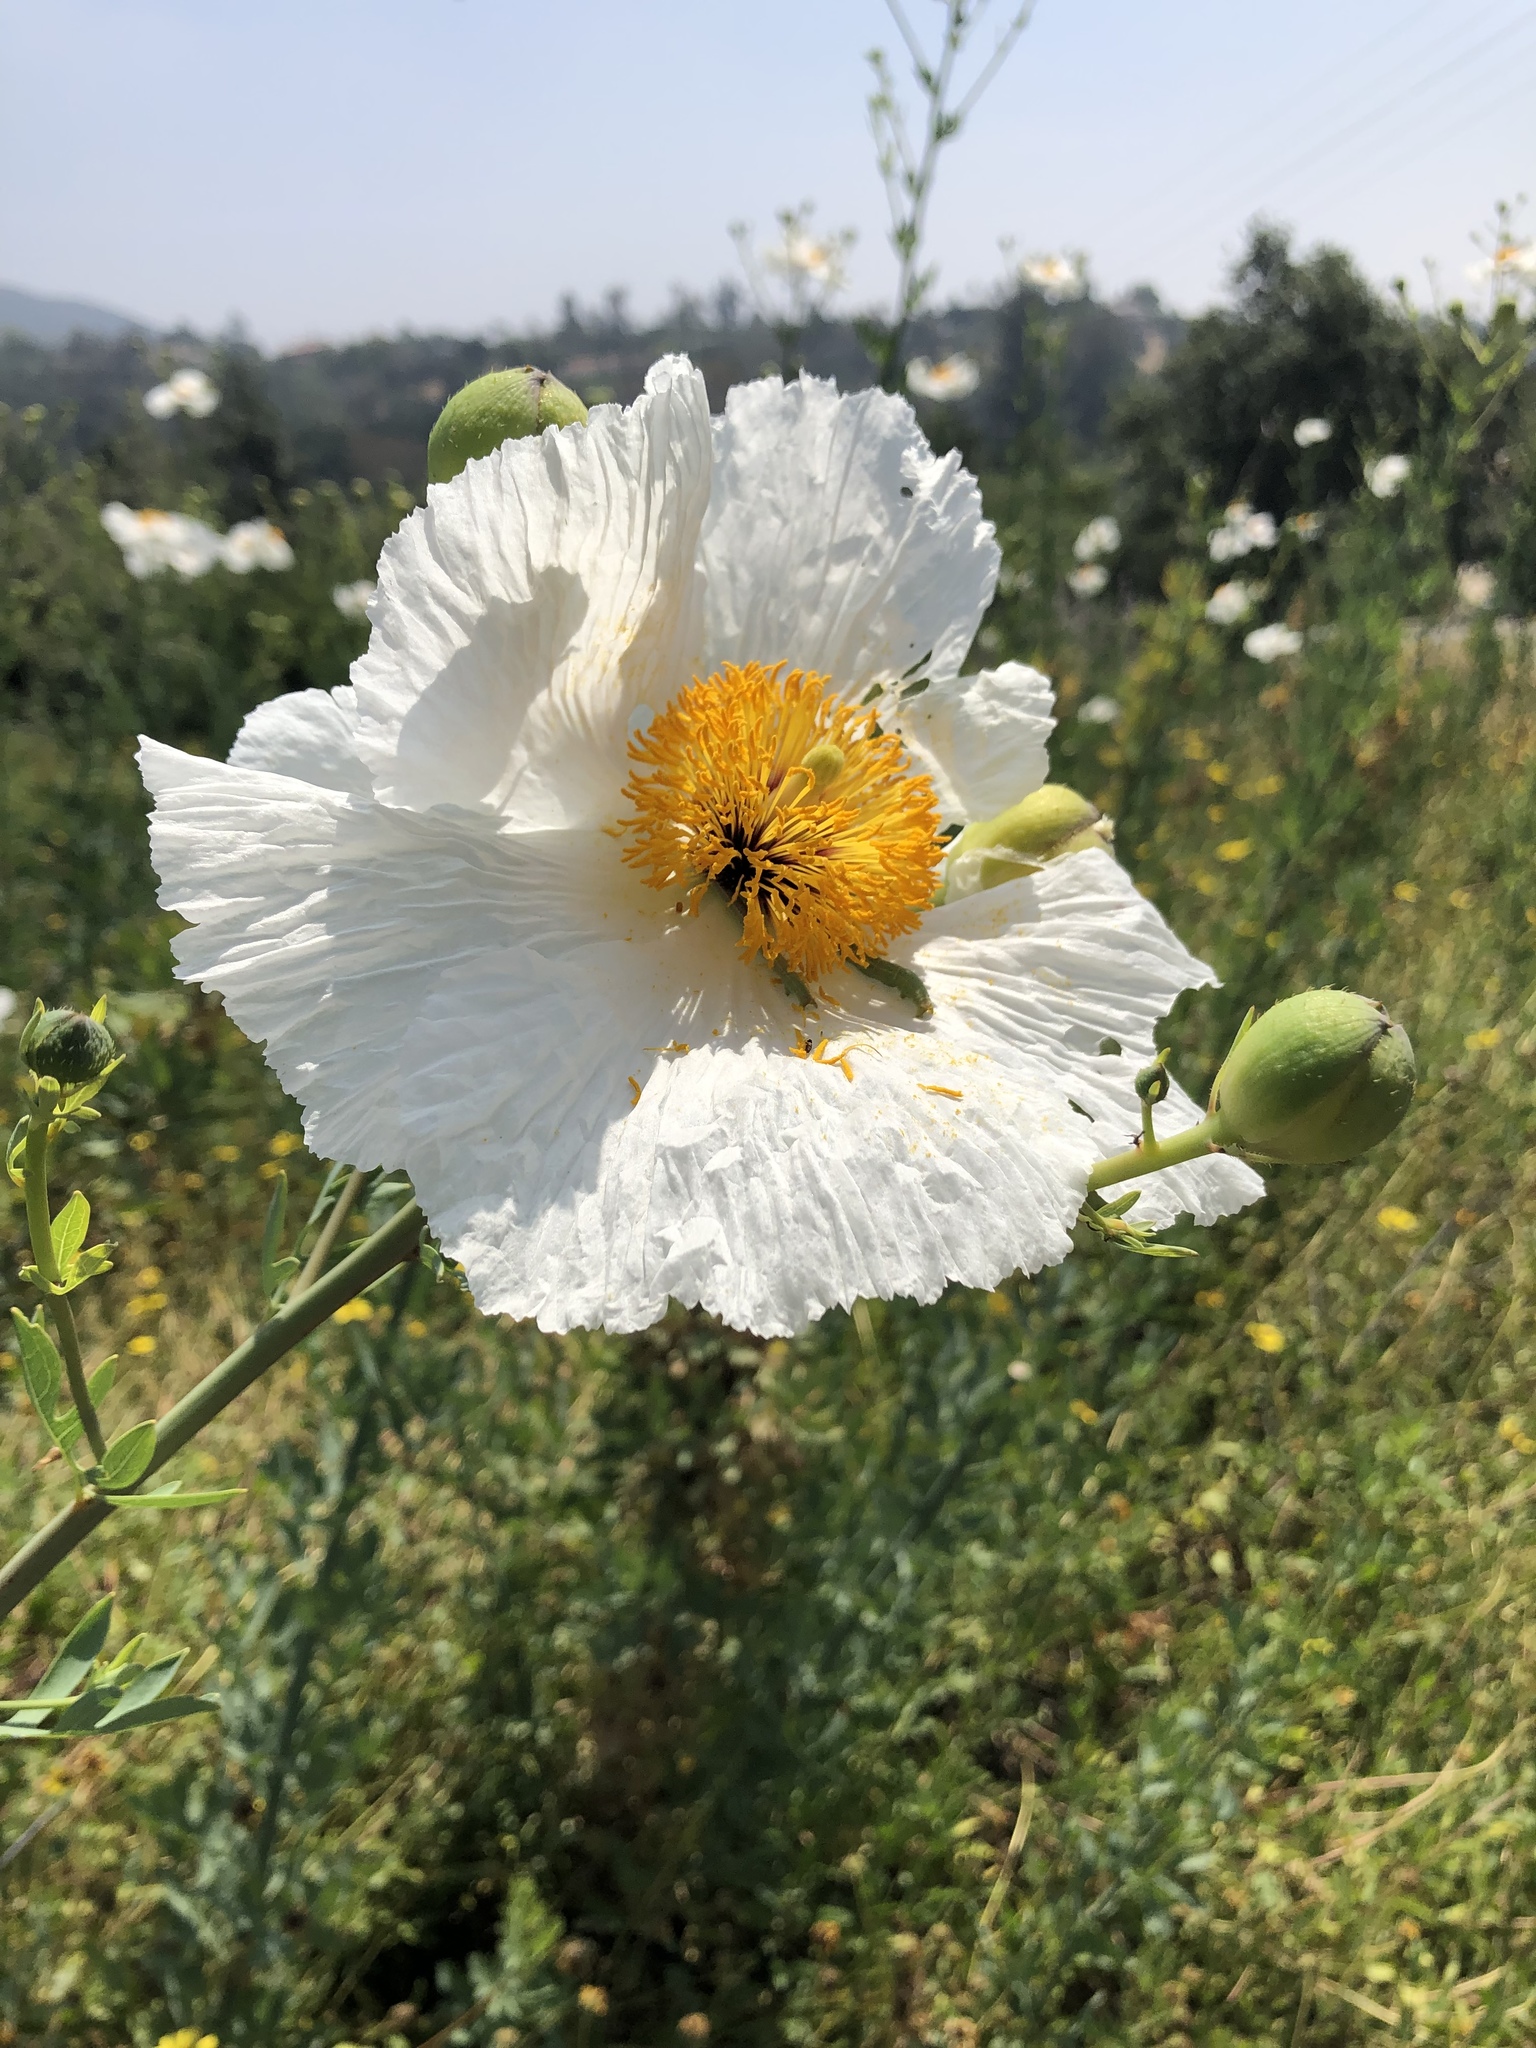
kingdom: Plantae
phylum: Tracheophyta
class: Magnoliopsida
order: Ranunculales
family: Papaveraceae
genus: Romneya
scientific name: Romneya
